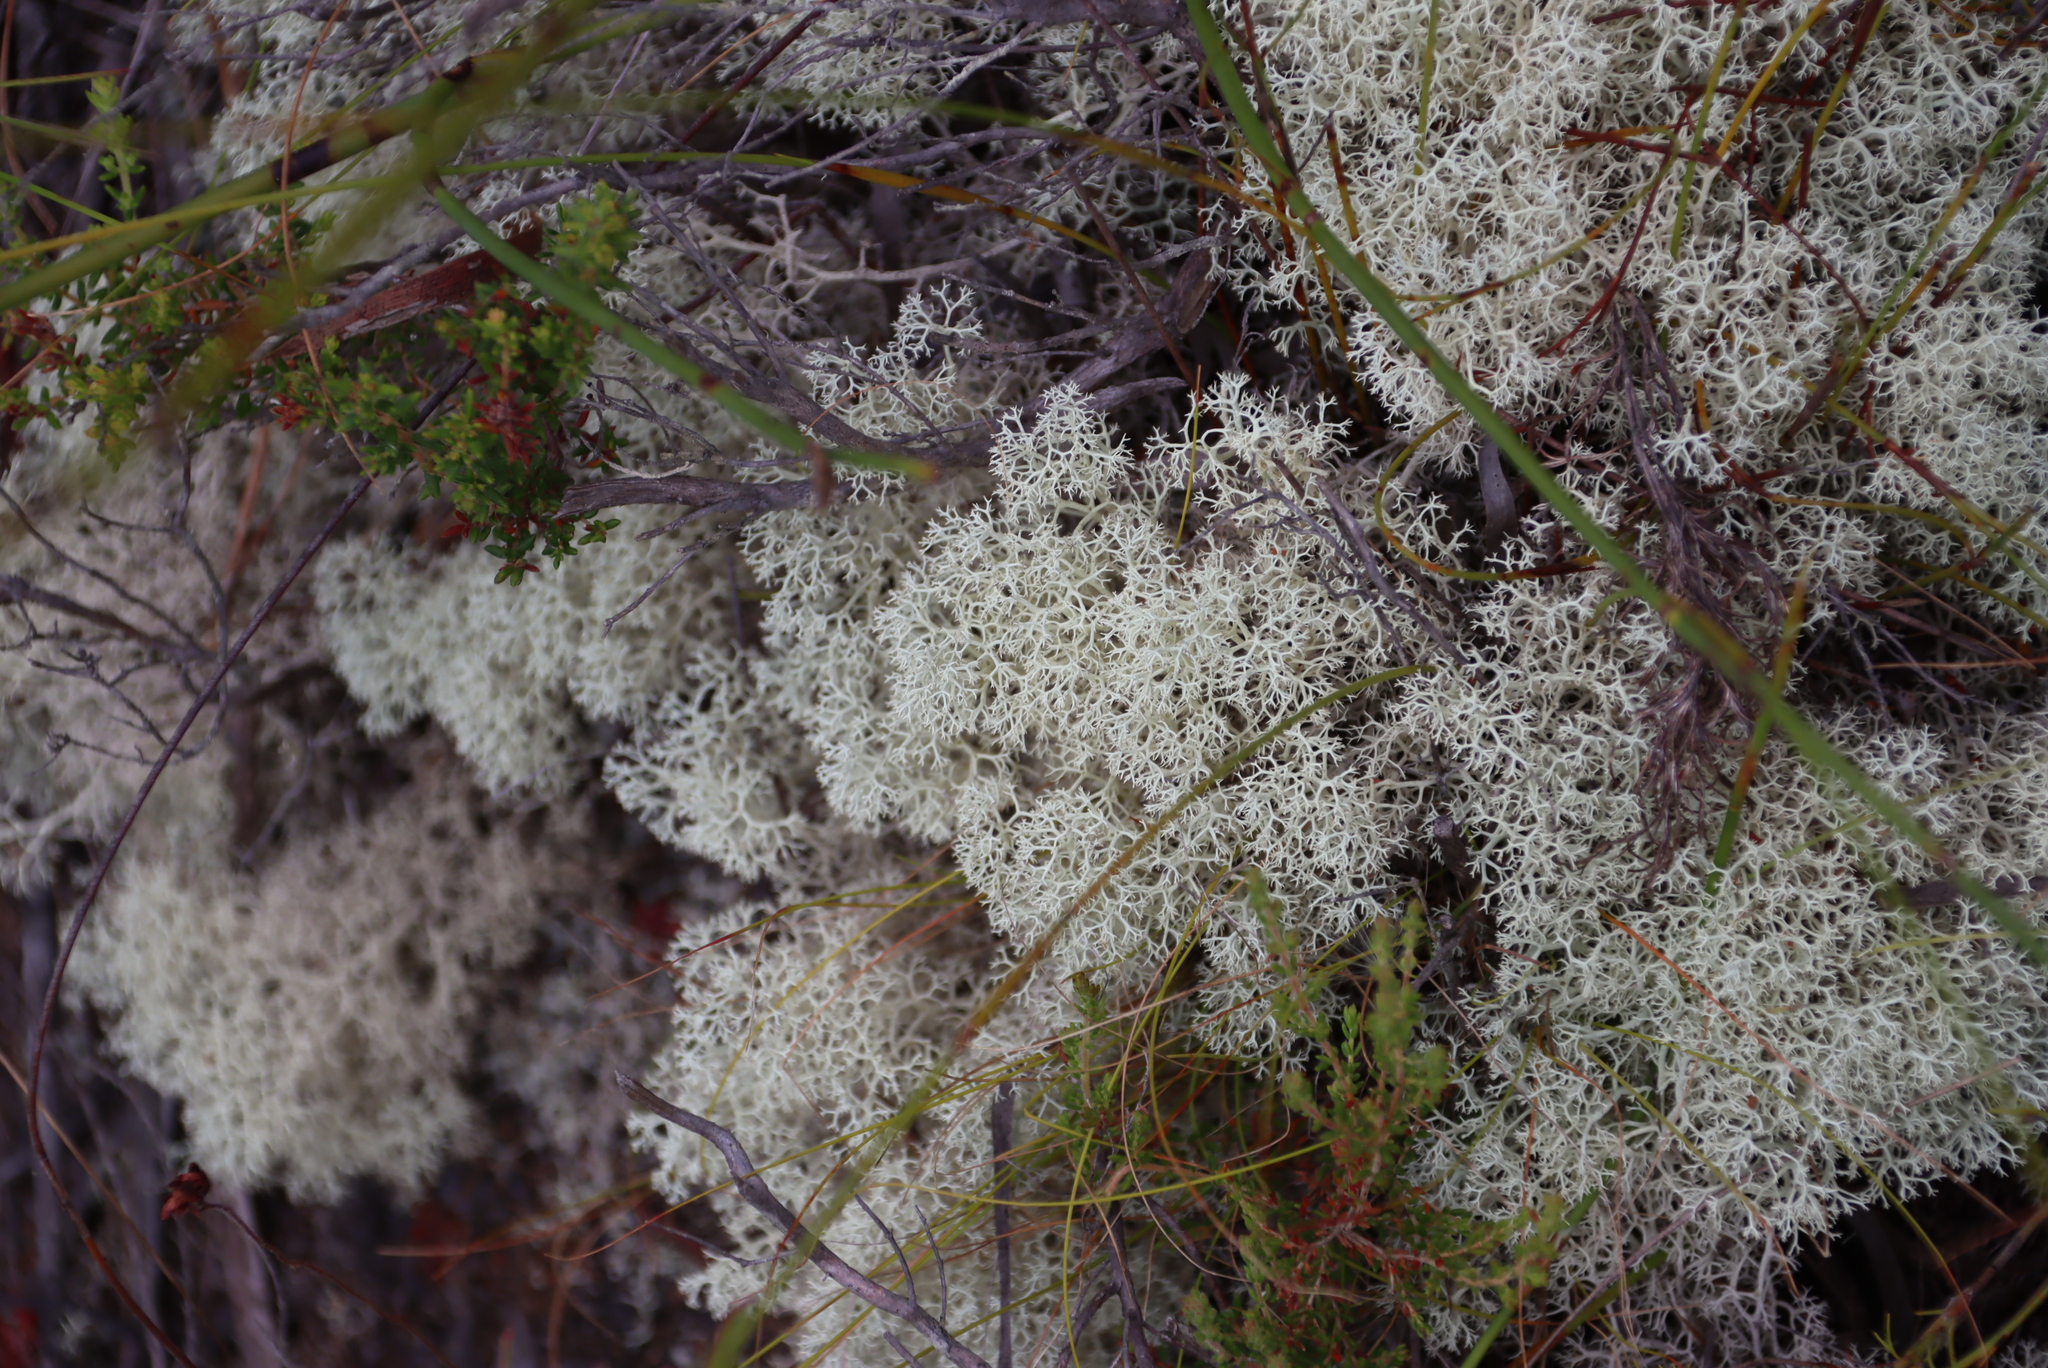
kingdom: Fungi
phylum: Ascomycota
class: Lecanoromycetes
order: Lecanorales
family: Cladoniaceae
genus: Cladonia
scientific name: Cladonia confusa
